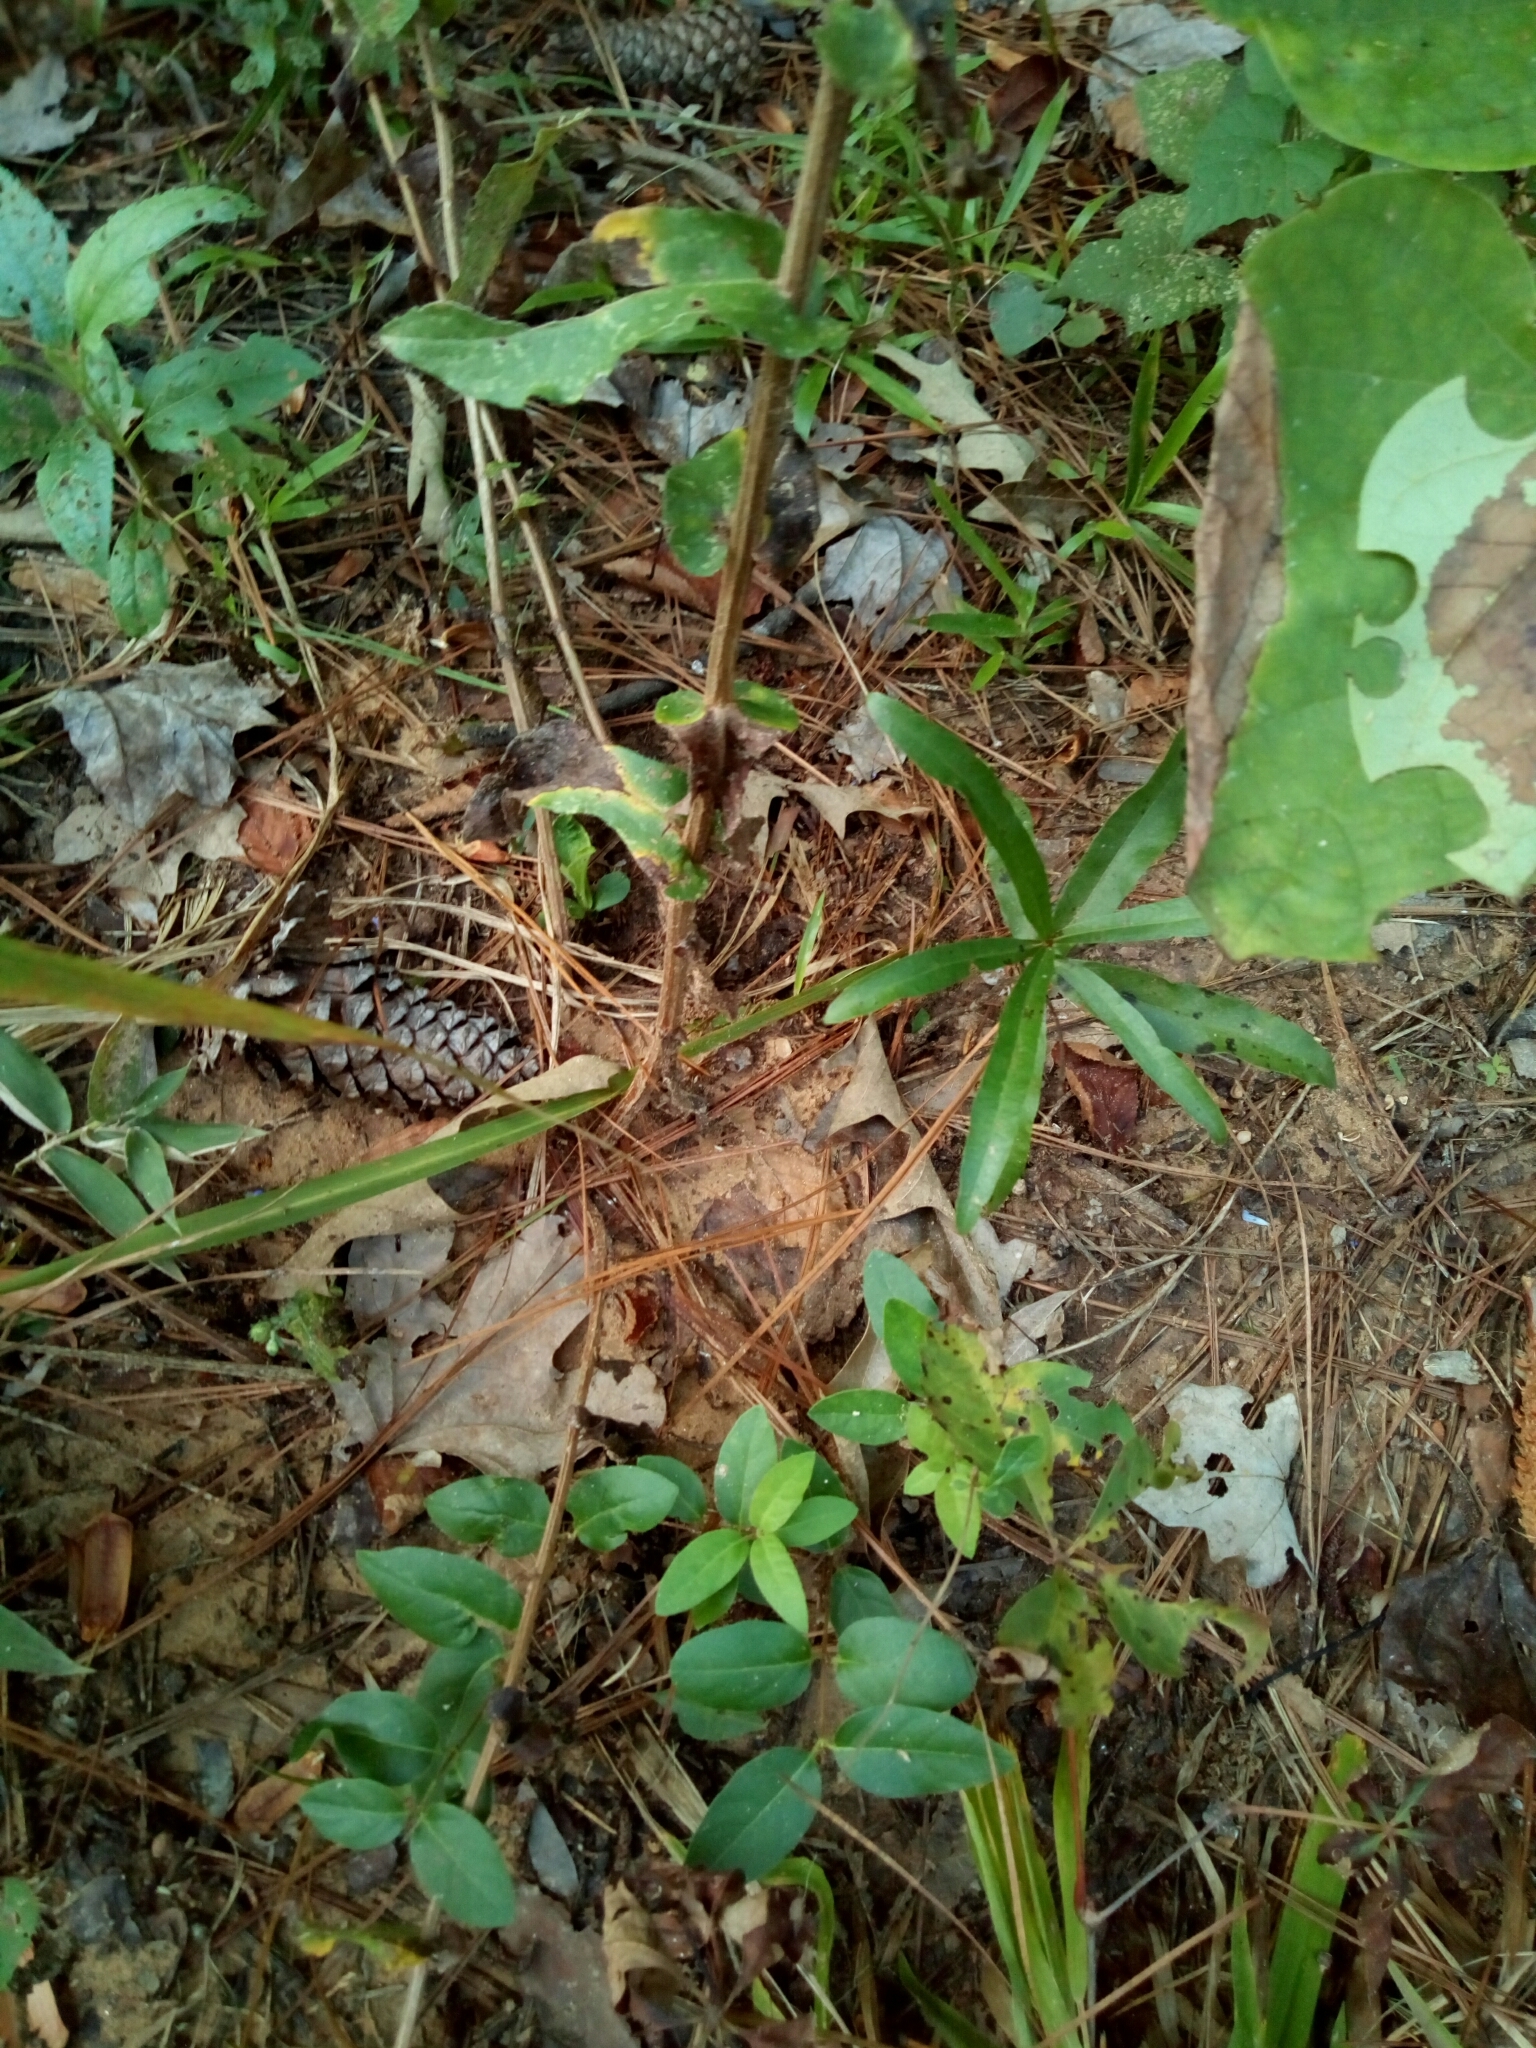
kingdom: Plantae
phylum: Tracheophyta
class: Magnoliopsida
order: Asterales
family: Asteraceae
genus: Symphyotrichum
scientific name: Symphyotrichum patens
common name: Late purple aster
